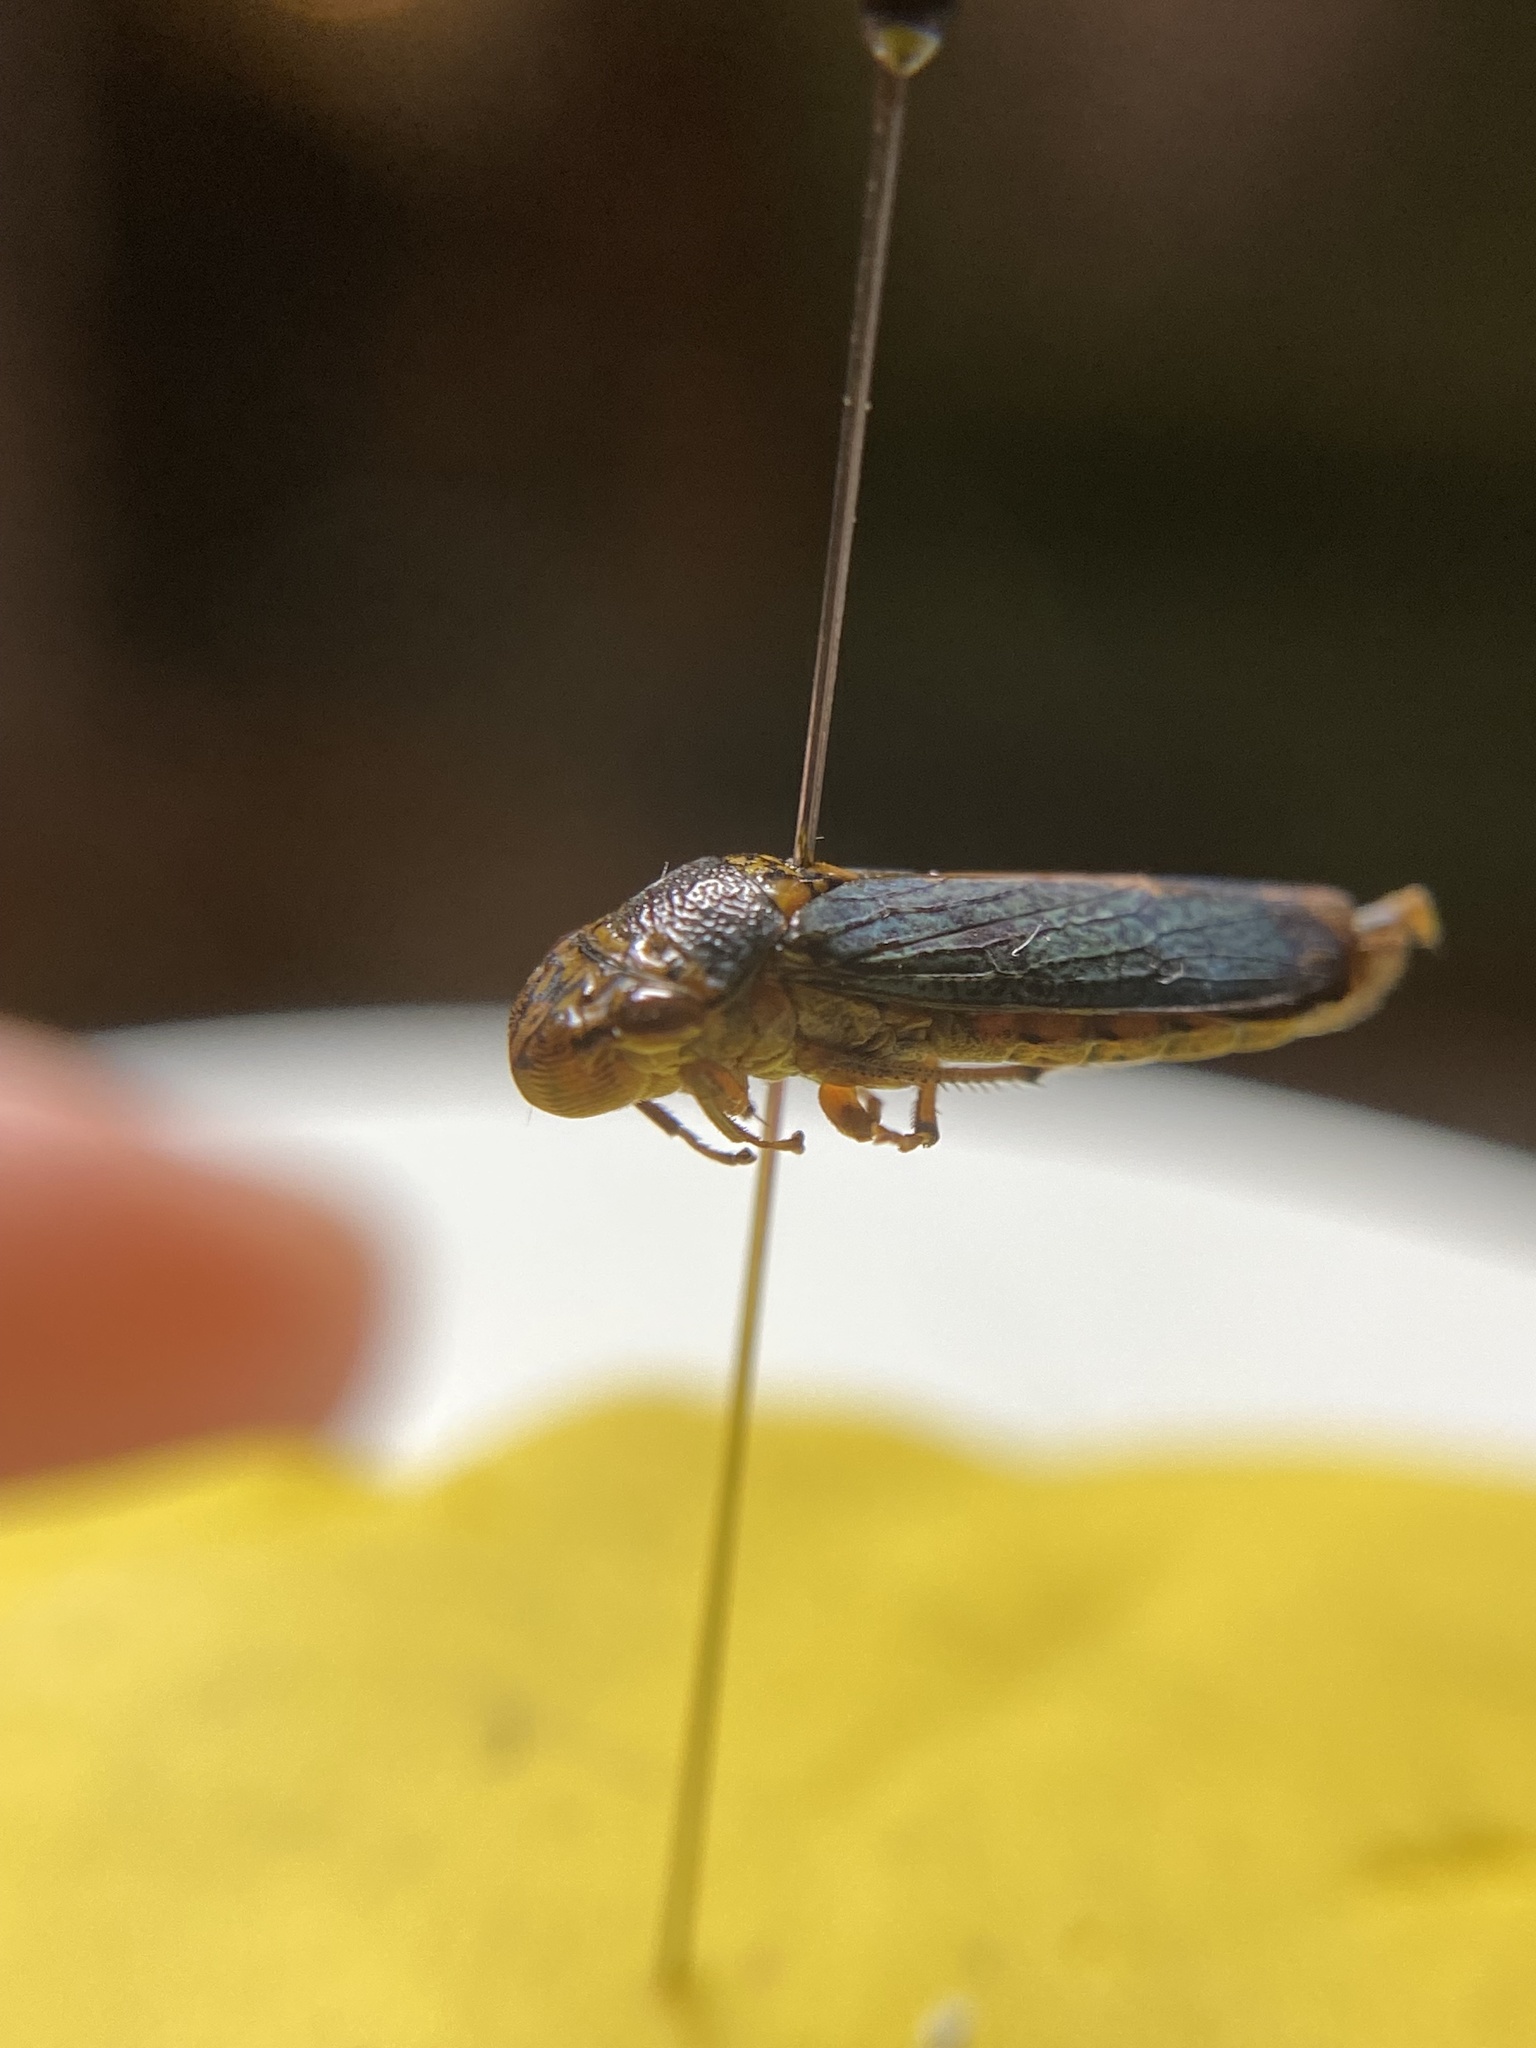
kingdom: Animalia
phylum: Arthropoda
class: Insecta
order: Hemiptera
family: Cicadellidae
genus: Oncometopia
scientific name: Oncometopia orbona
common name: Broad-headed sharpshooter
